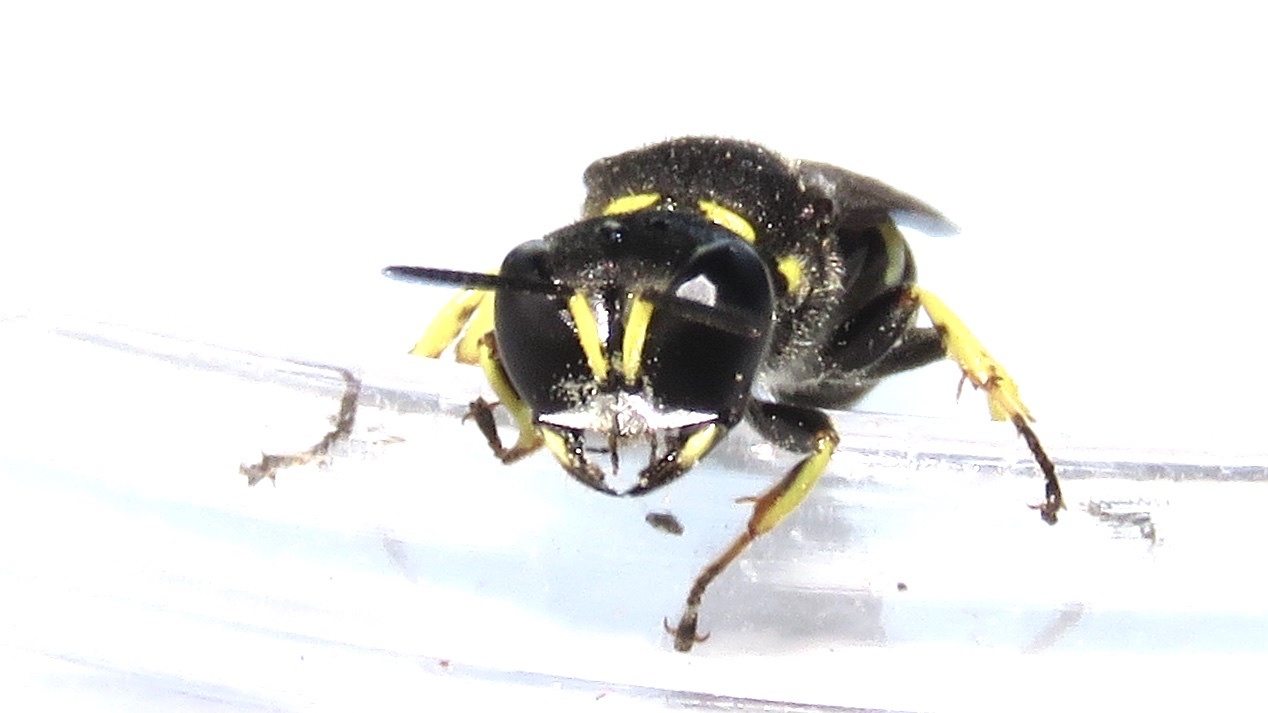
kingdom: Animalia
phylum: Arthropoda
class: Insecta
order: Hymenoptera
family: Crabronidae
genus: Ectemnius
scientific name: Ectemnius continuus
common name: Common ectemnius
